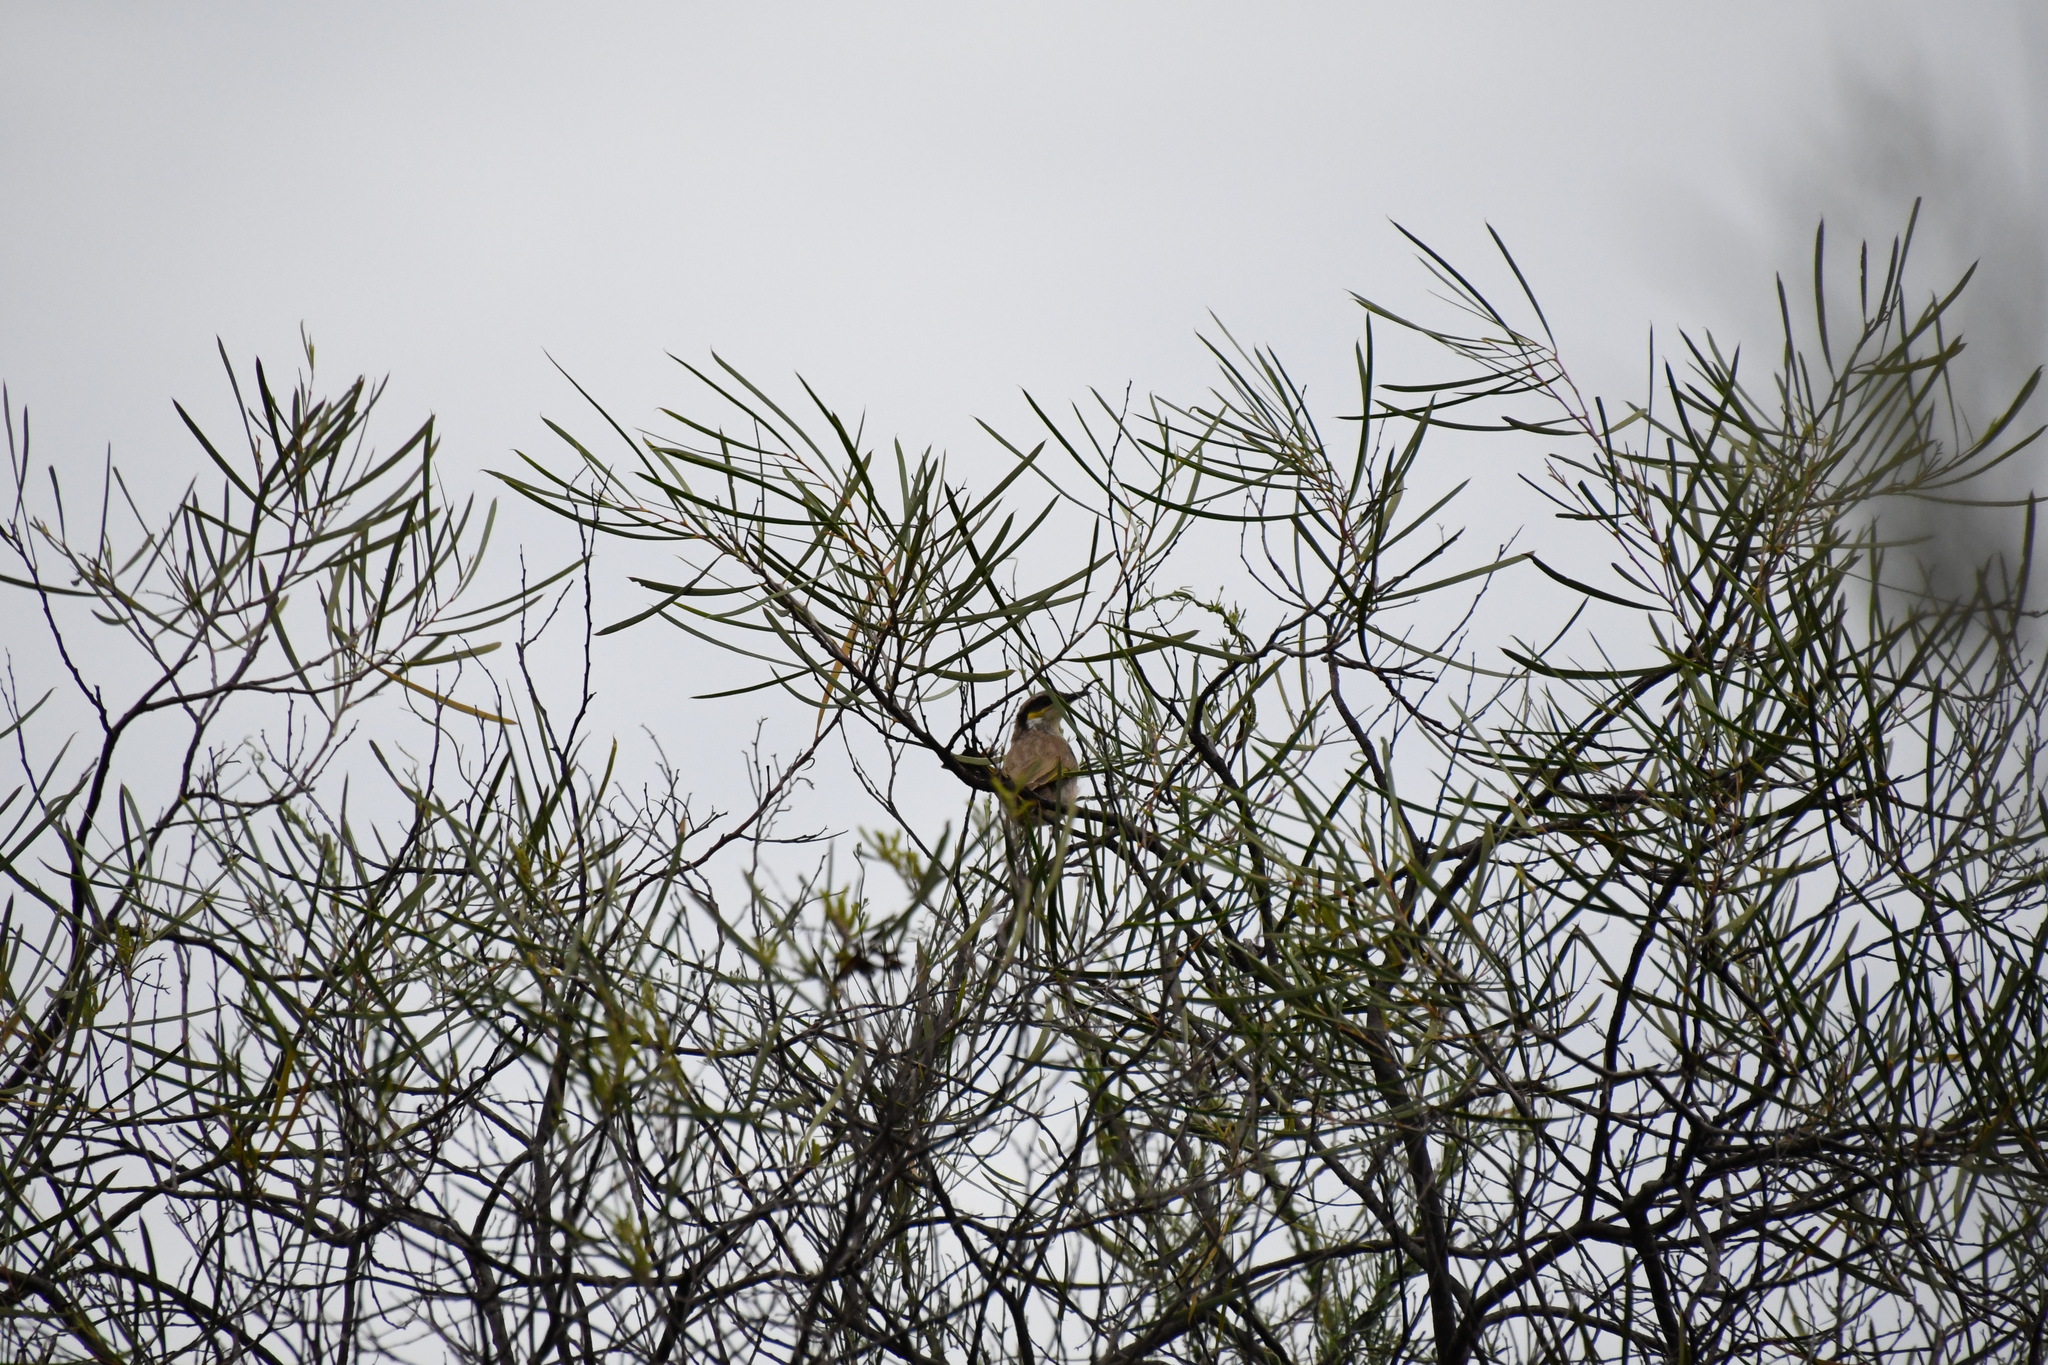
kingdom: Animalia
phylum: Chordata
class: Aves
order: Passeriformes
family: Meliphagidae
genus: Gavicalis
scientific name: Gavicalis virescens
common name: Singing honeyeater
